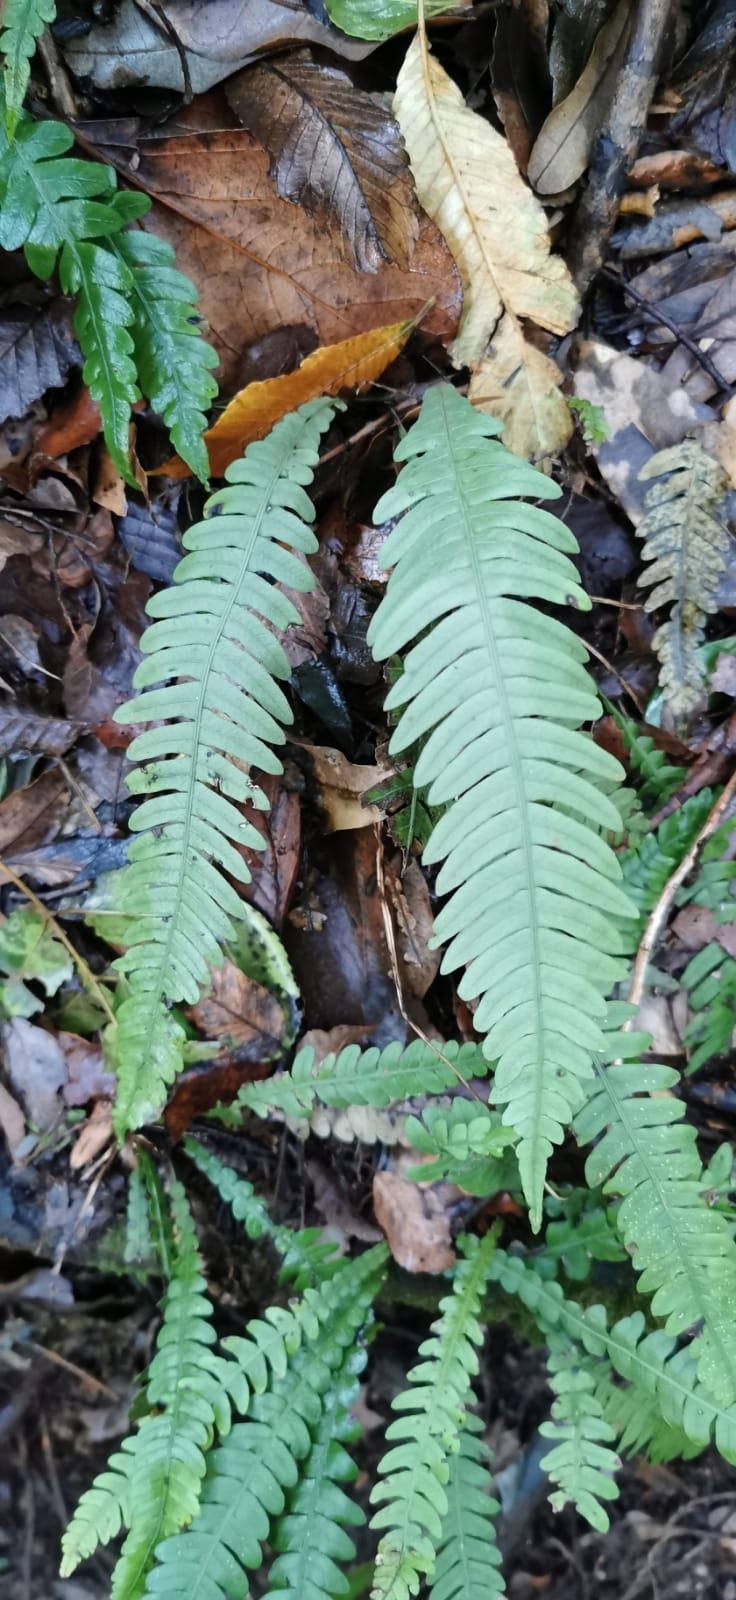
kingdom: Plantae
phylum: Tracheophyta
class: Polypodiopsida
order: Polypodiales
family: Blechnaceae
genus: Austroblechnum
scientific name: Austroblechnum lechleri
